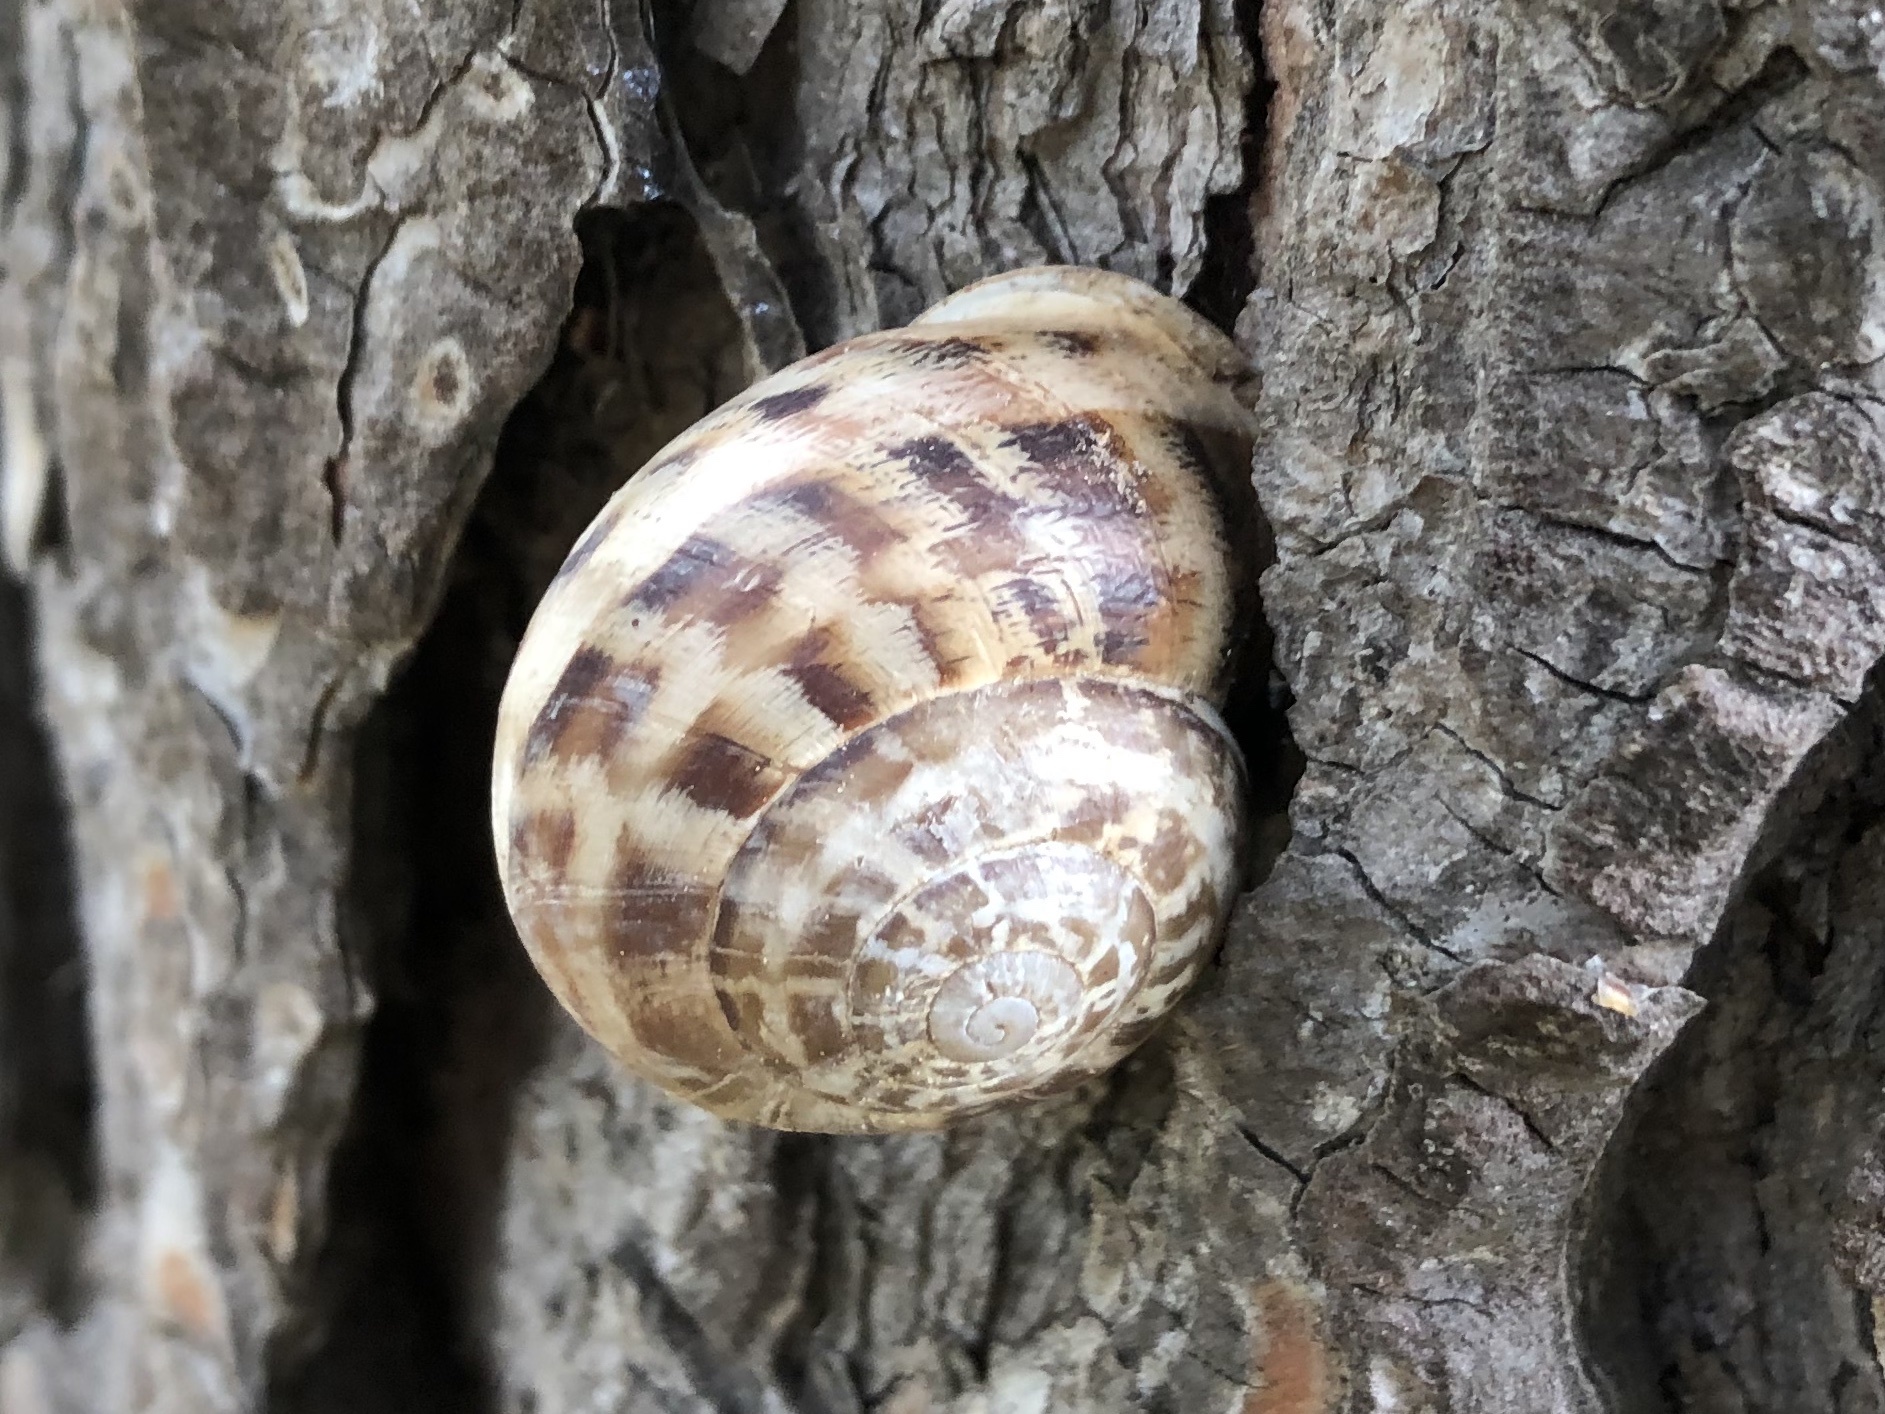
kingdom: Animalia
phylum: Mollusca
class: Gastropoda
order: Stylommatophora
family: Helicidae
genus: Eobania
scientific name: Eobania vermiculata
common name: Chocolateband snail
